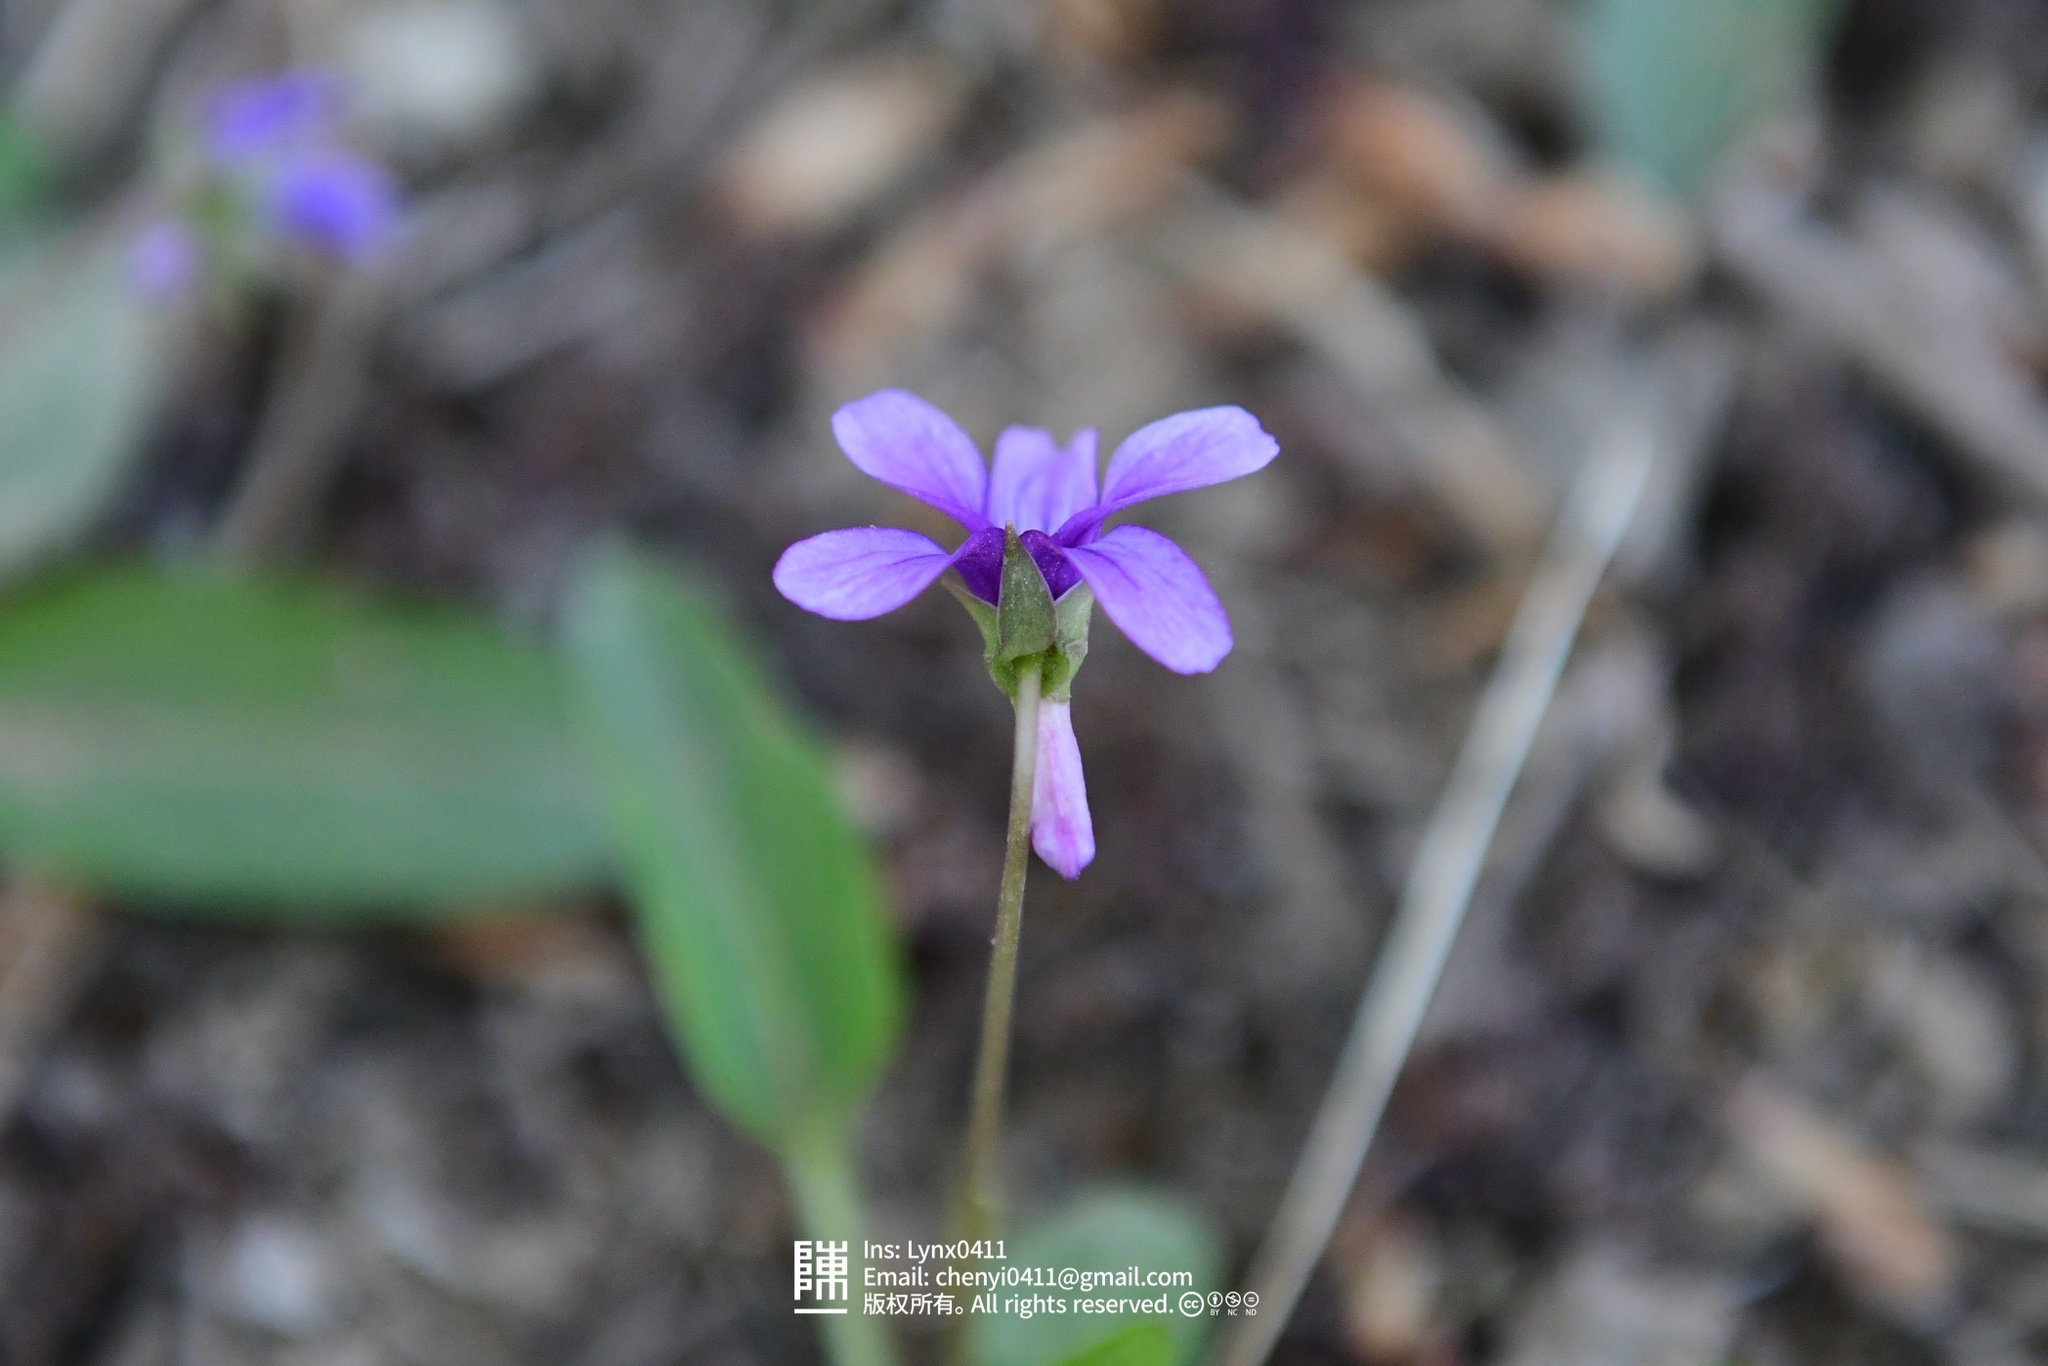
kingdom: Plantae
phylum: Tracheophyta
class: Magnoliopsida
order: Malpighiales
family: Violaceae
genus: Viola
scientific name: Viola prionantha
